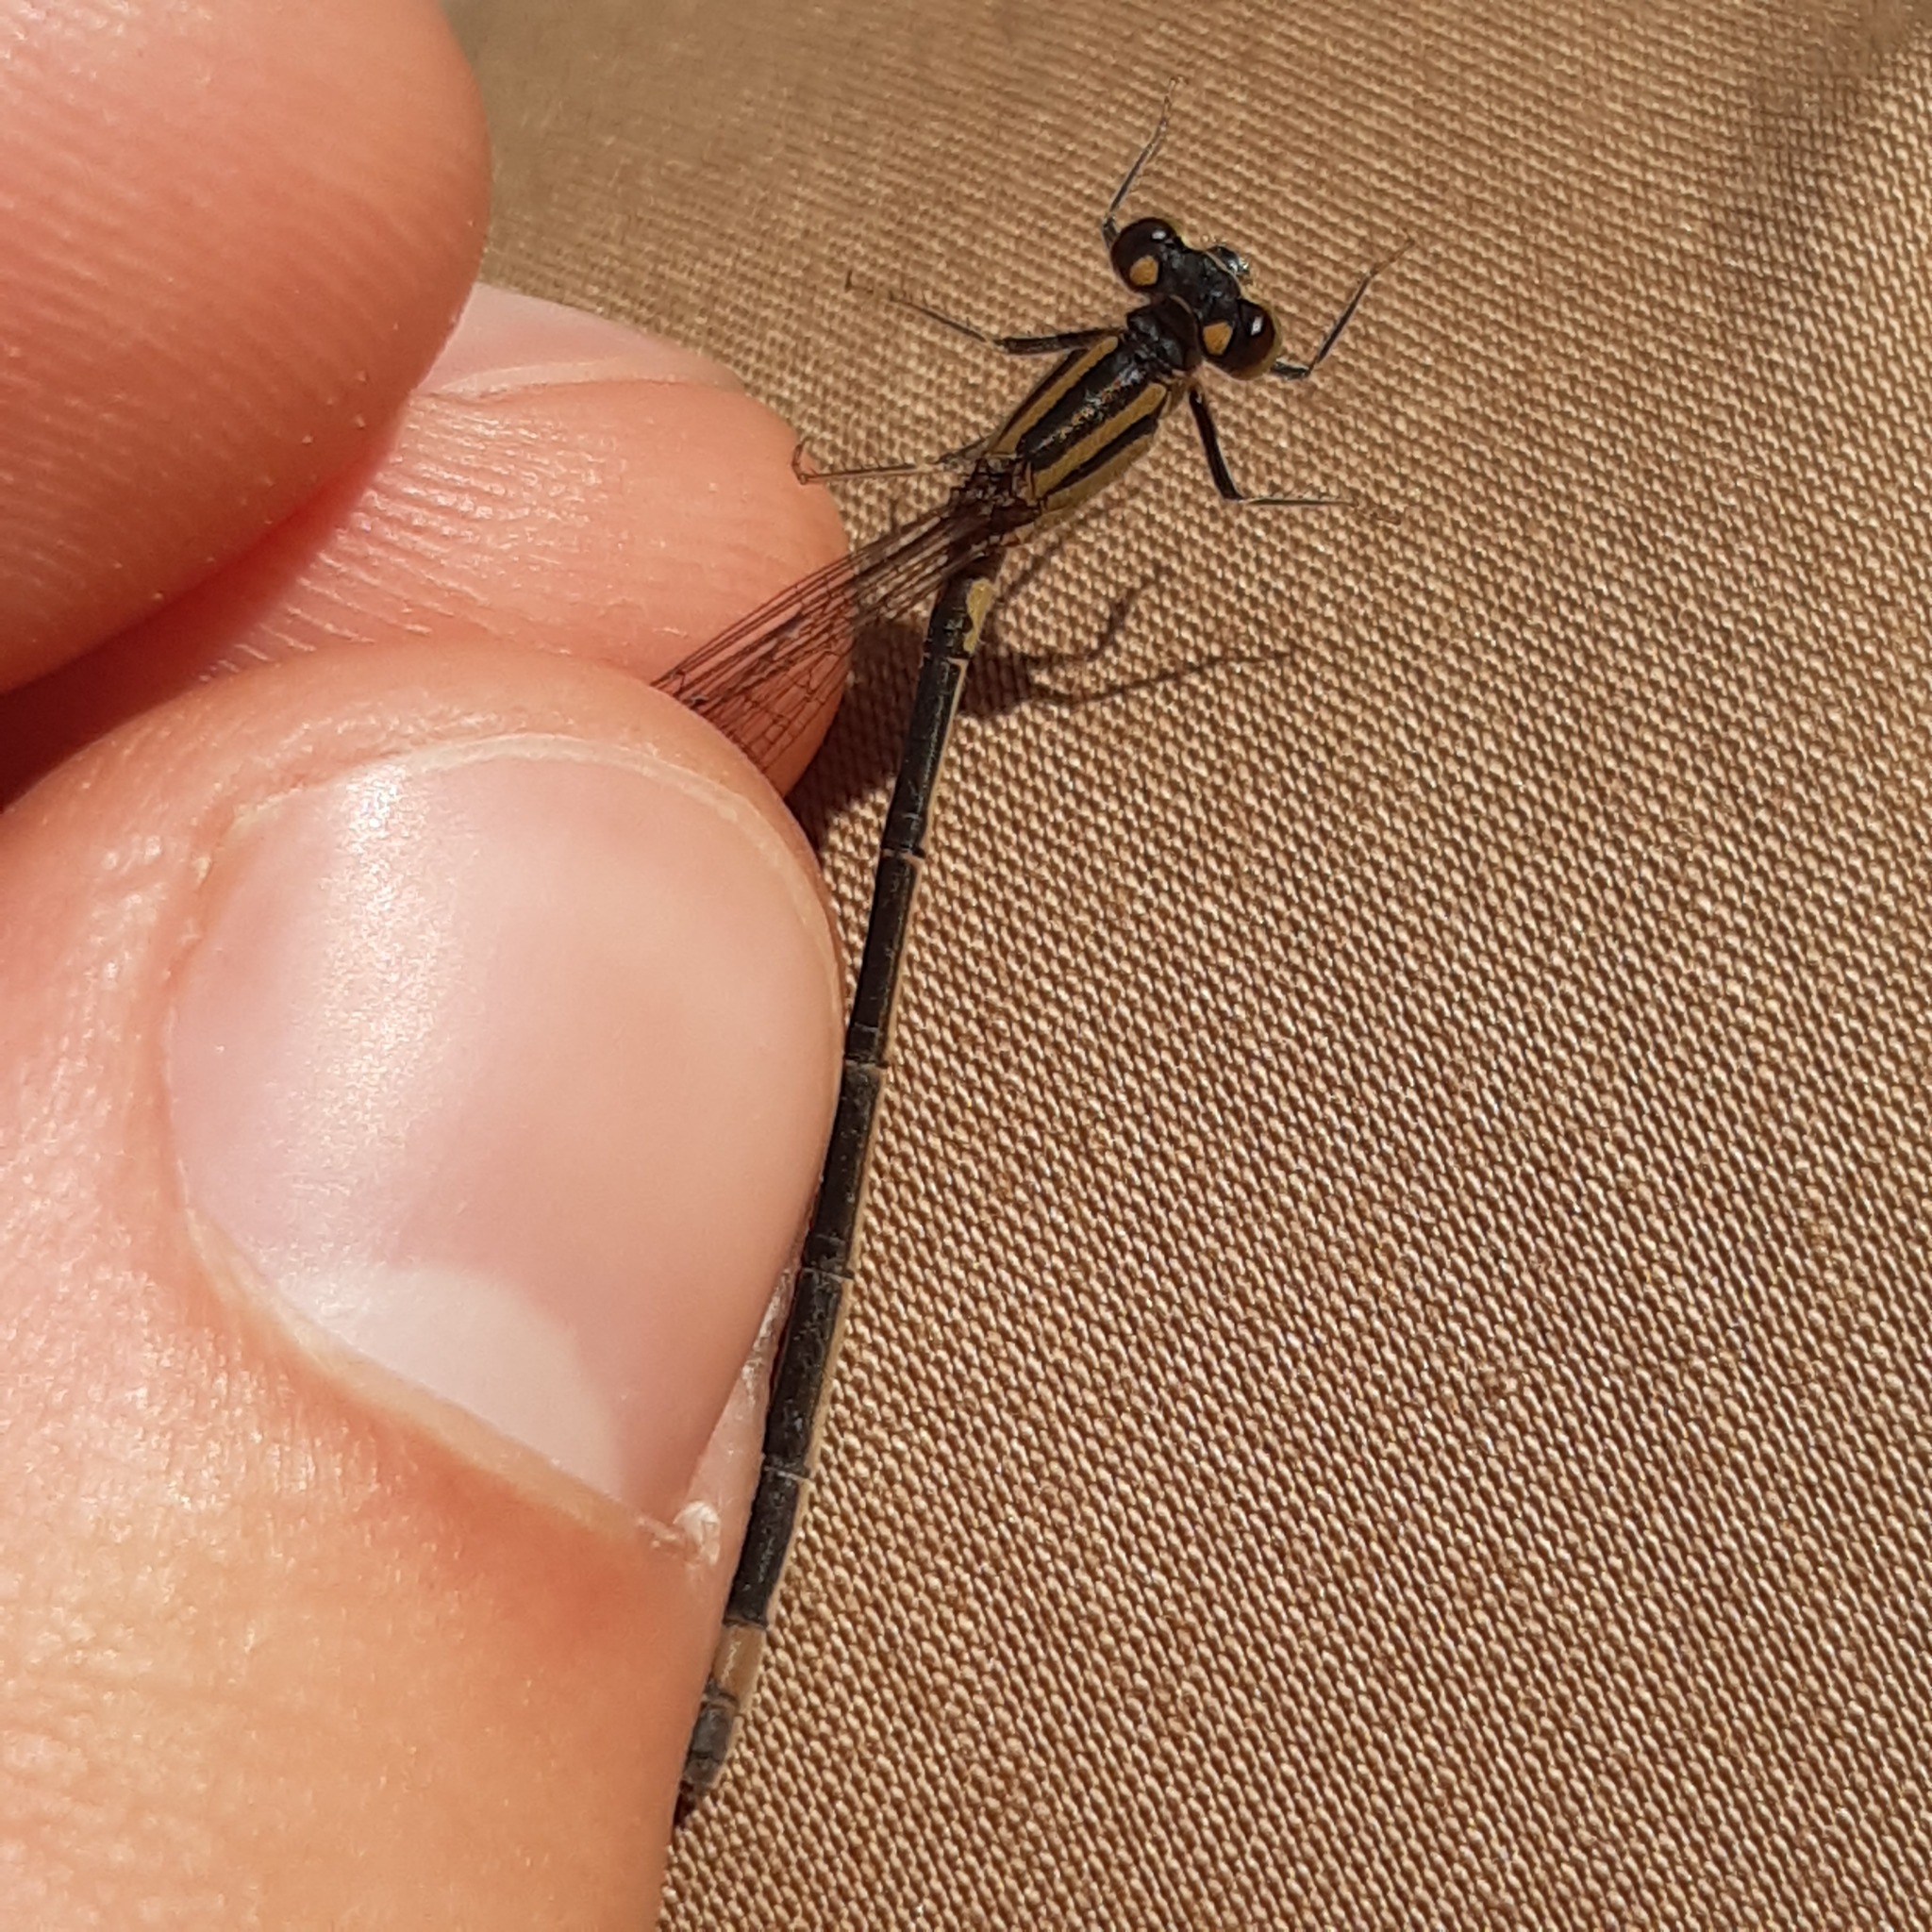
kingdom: Animalia
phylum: Arthropoda
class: Insecta
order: Odonata
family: Coenagrionidae
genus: Ischnura
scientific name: Ischnura elegans
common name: Blue-tailed damselfly
